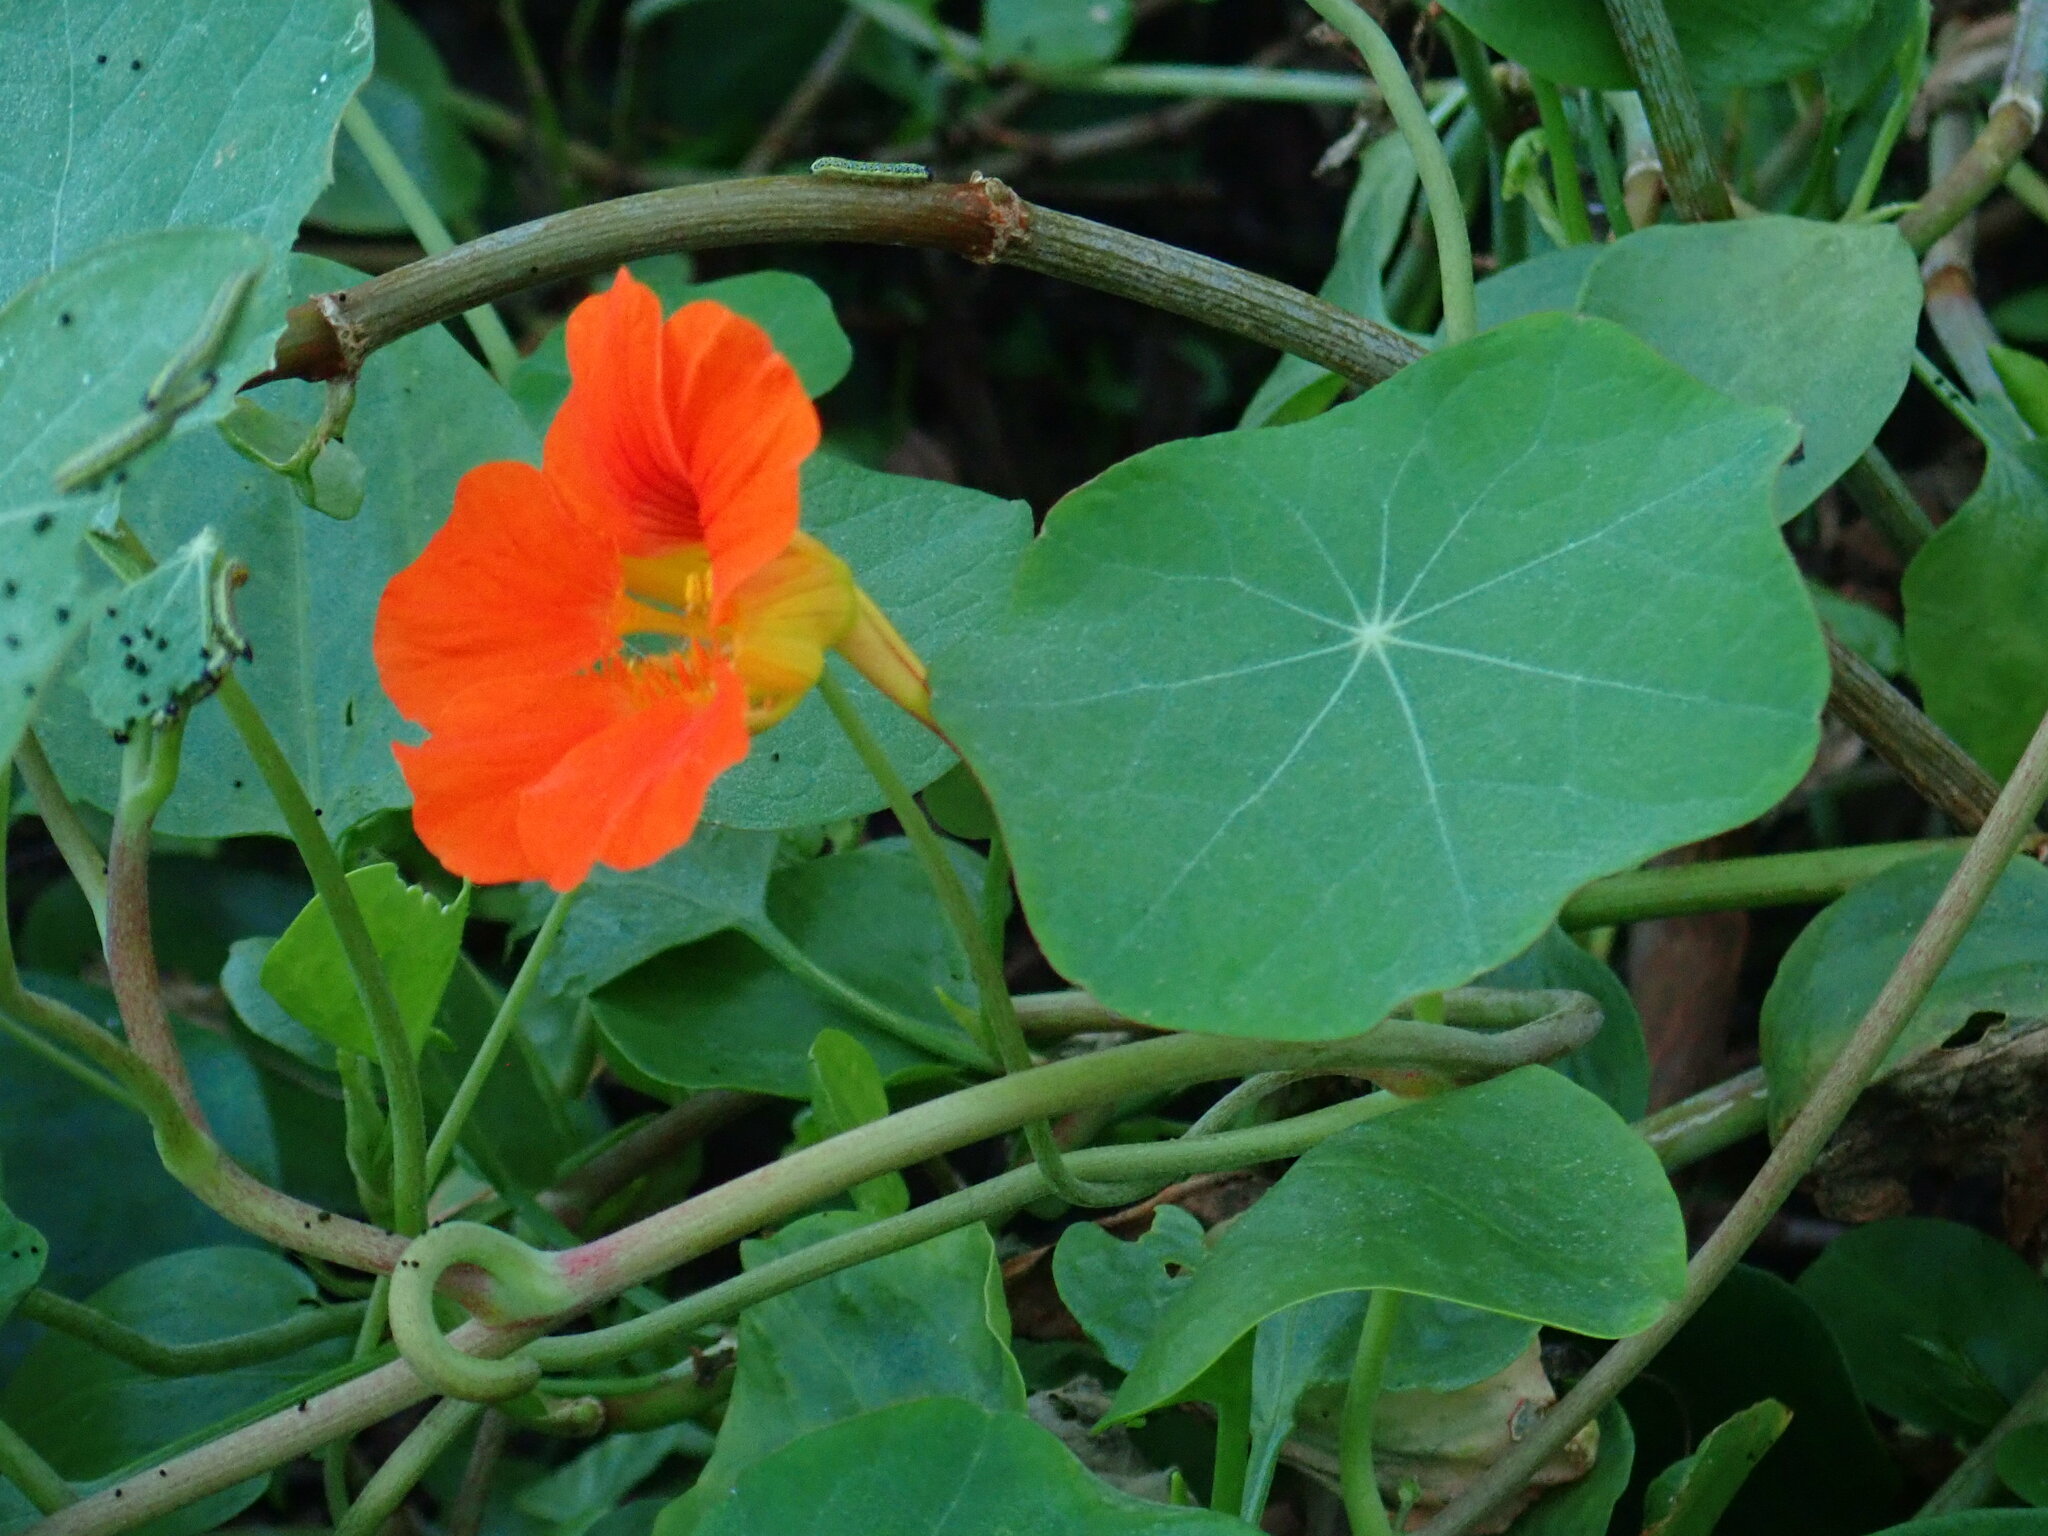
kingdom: Plantae
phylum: Tracheophyta
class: Magnoliopsida
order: Brassicales
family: Tropaeolaceae
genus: Tropaeolum
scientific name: Tropaeolum majus
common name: Nasturtium
